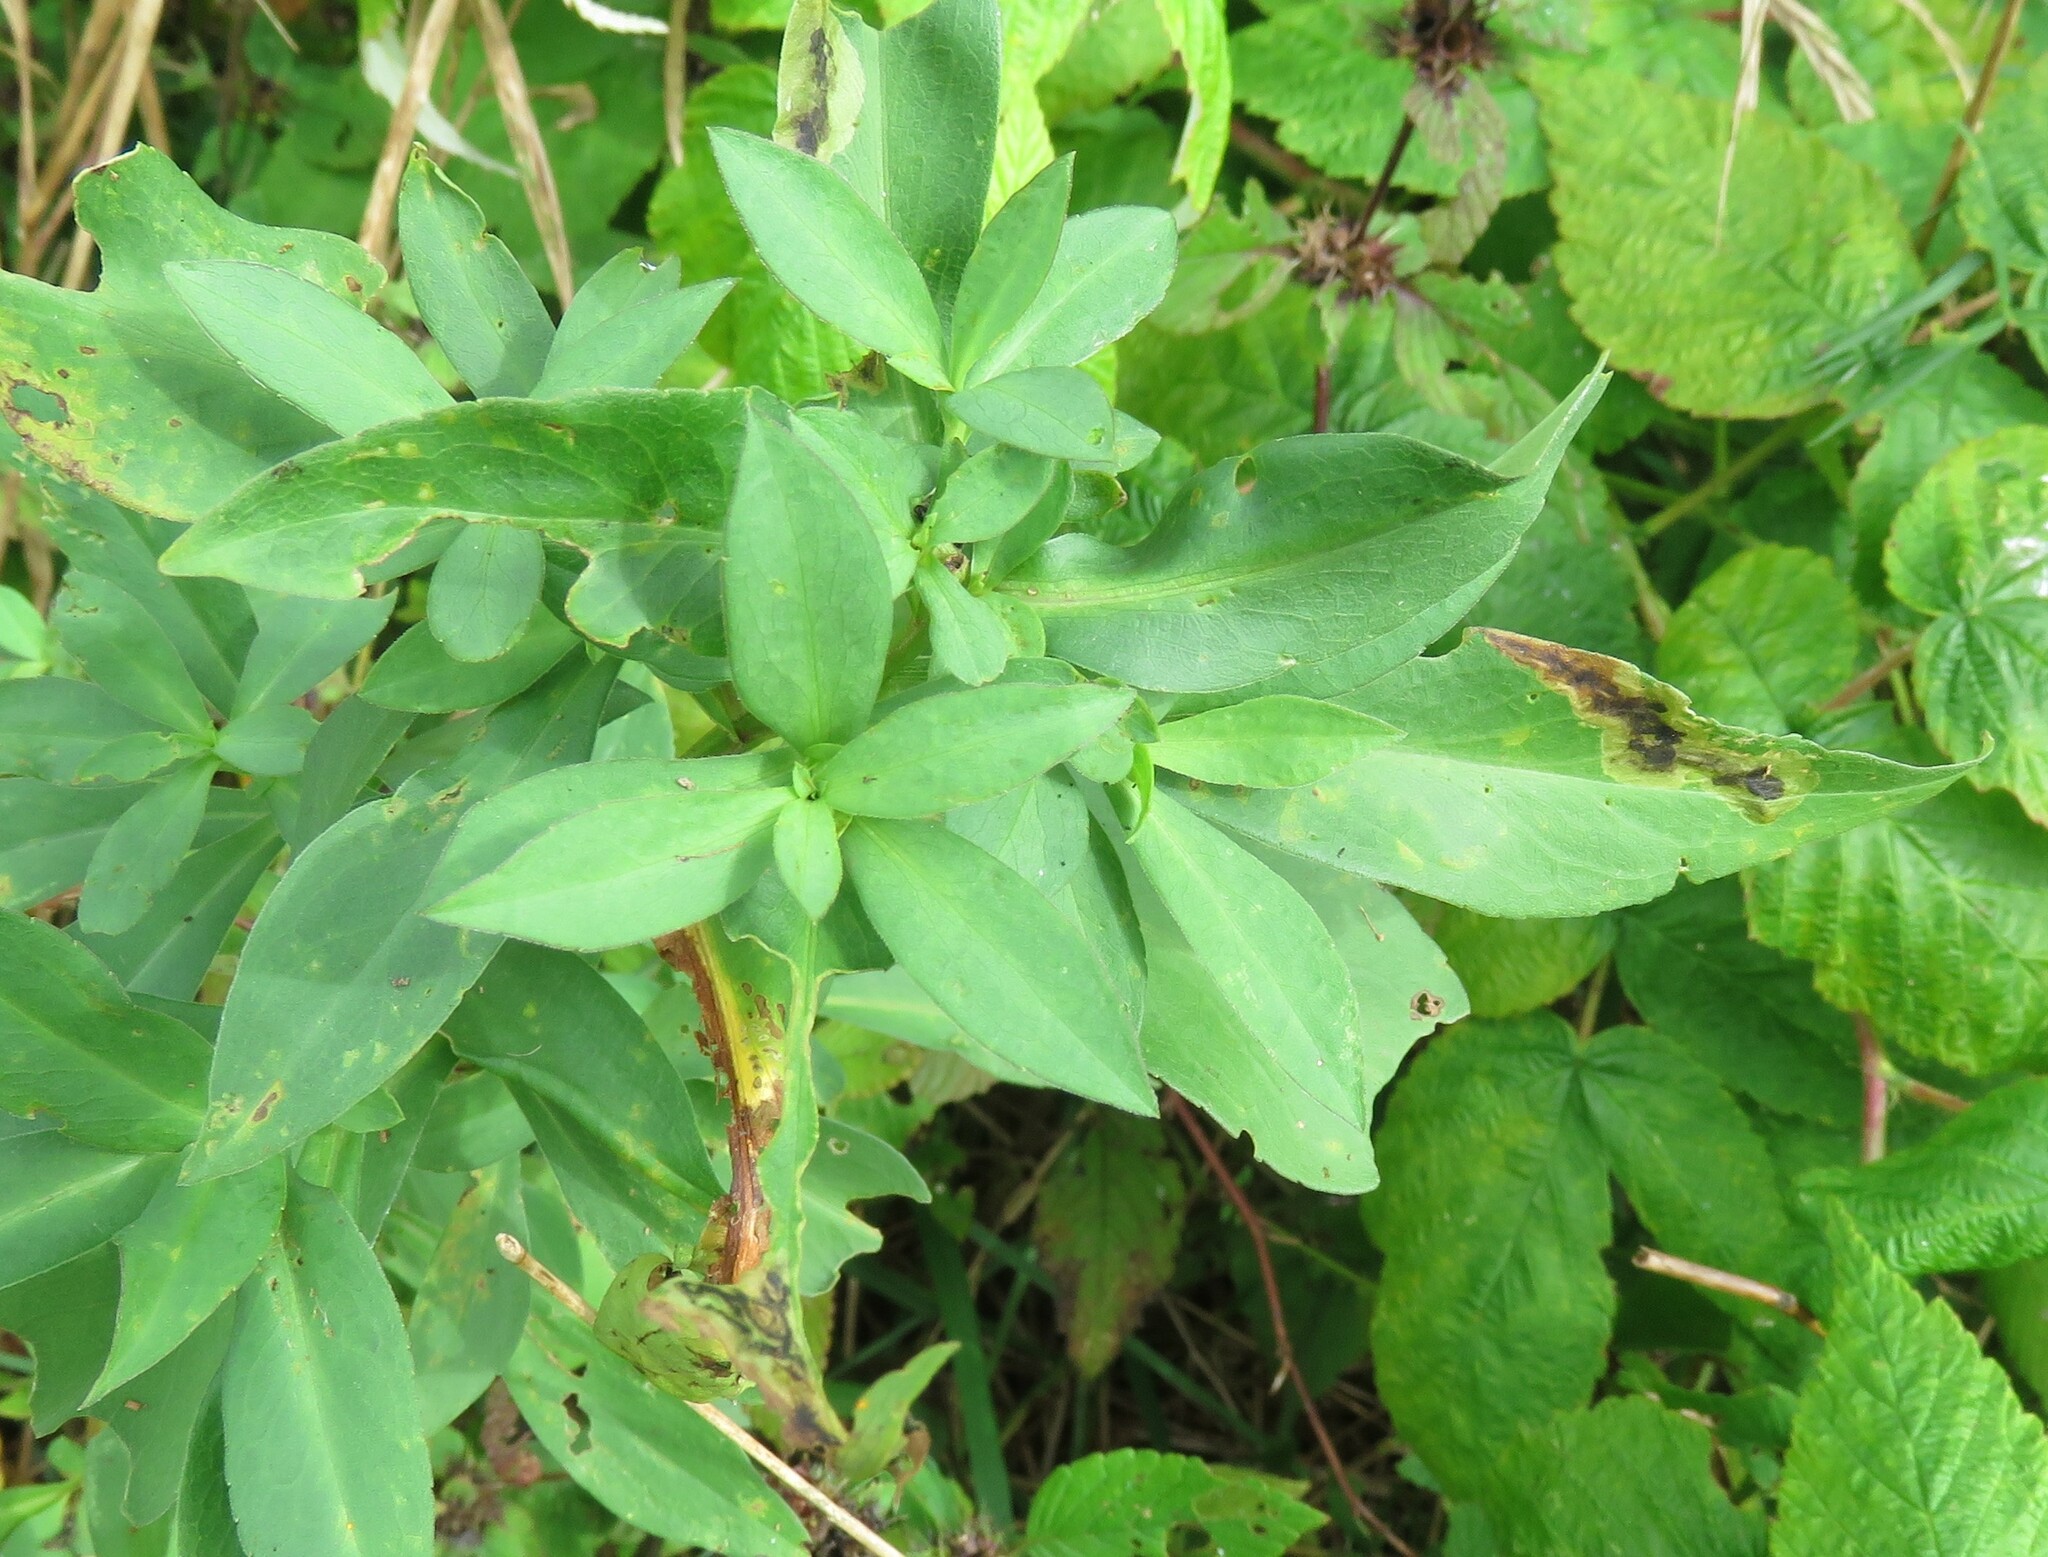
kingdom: Animalia
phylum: Arthropoda
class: Insecta
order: Diptera
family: Agromyzidae
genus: Nemorimyza
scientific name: Nemorimyza posticata
